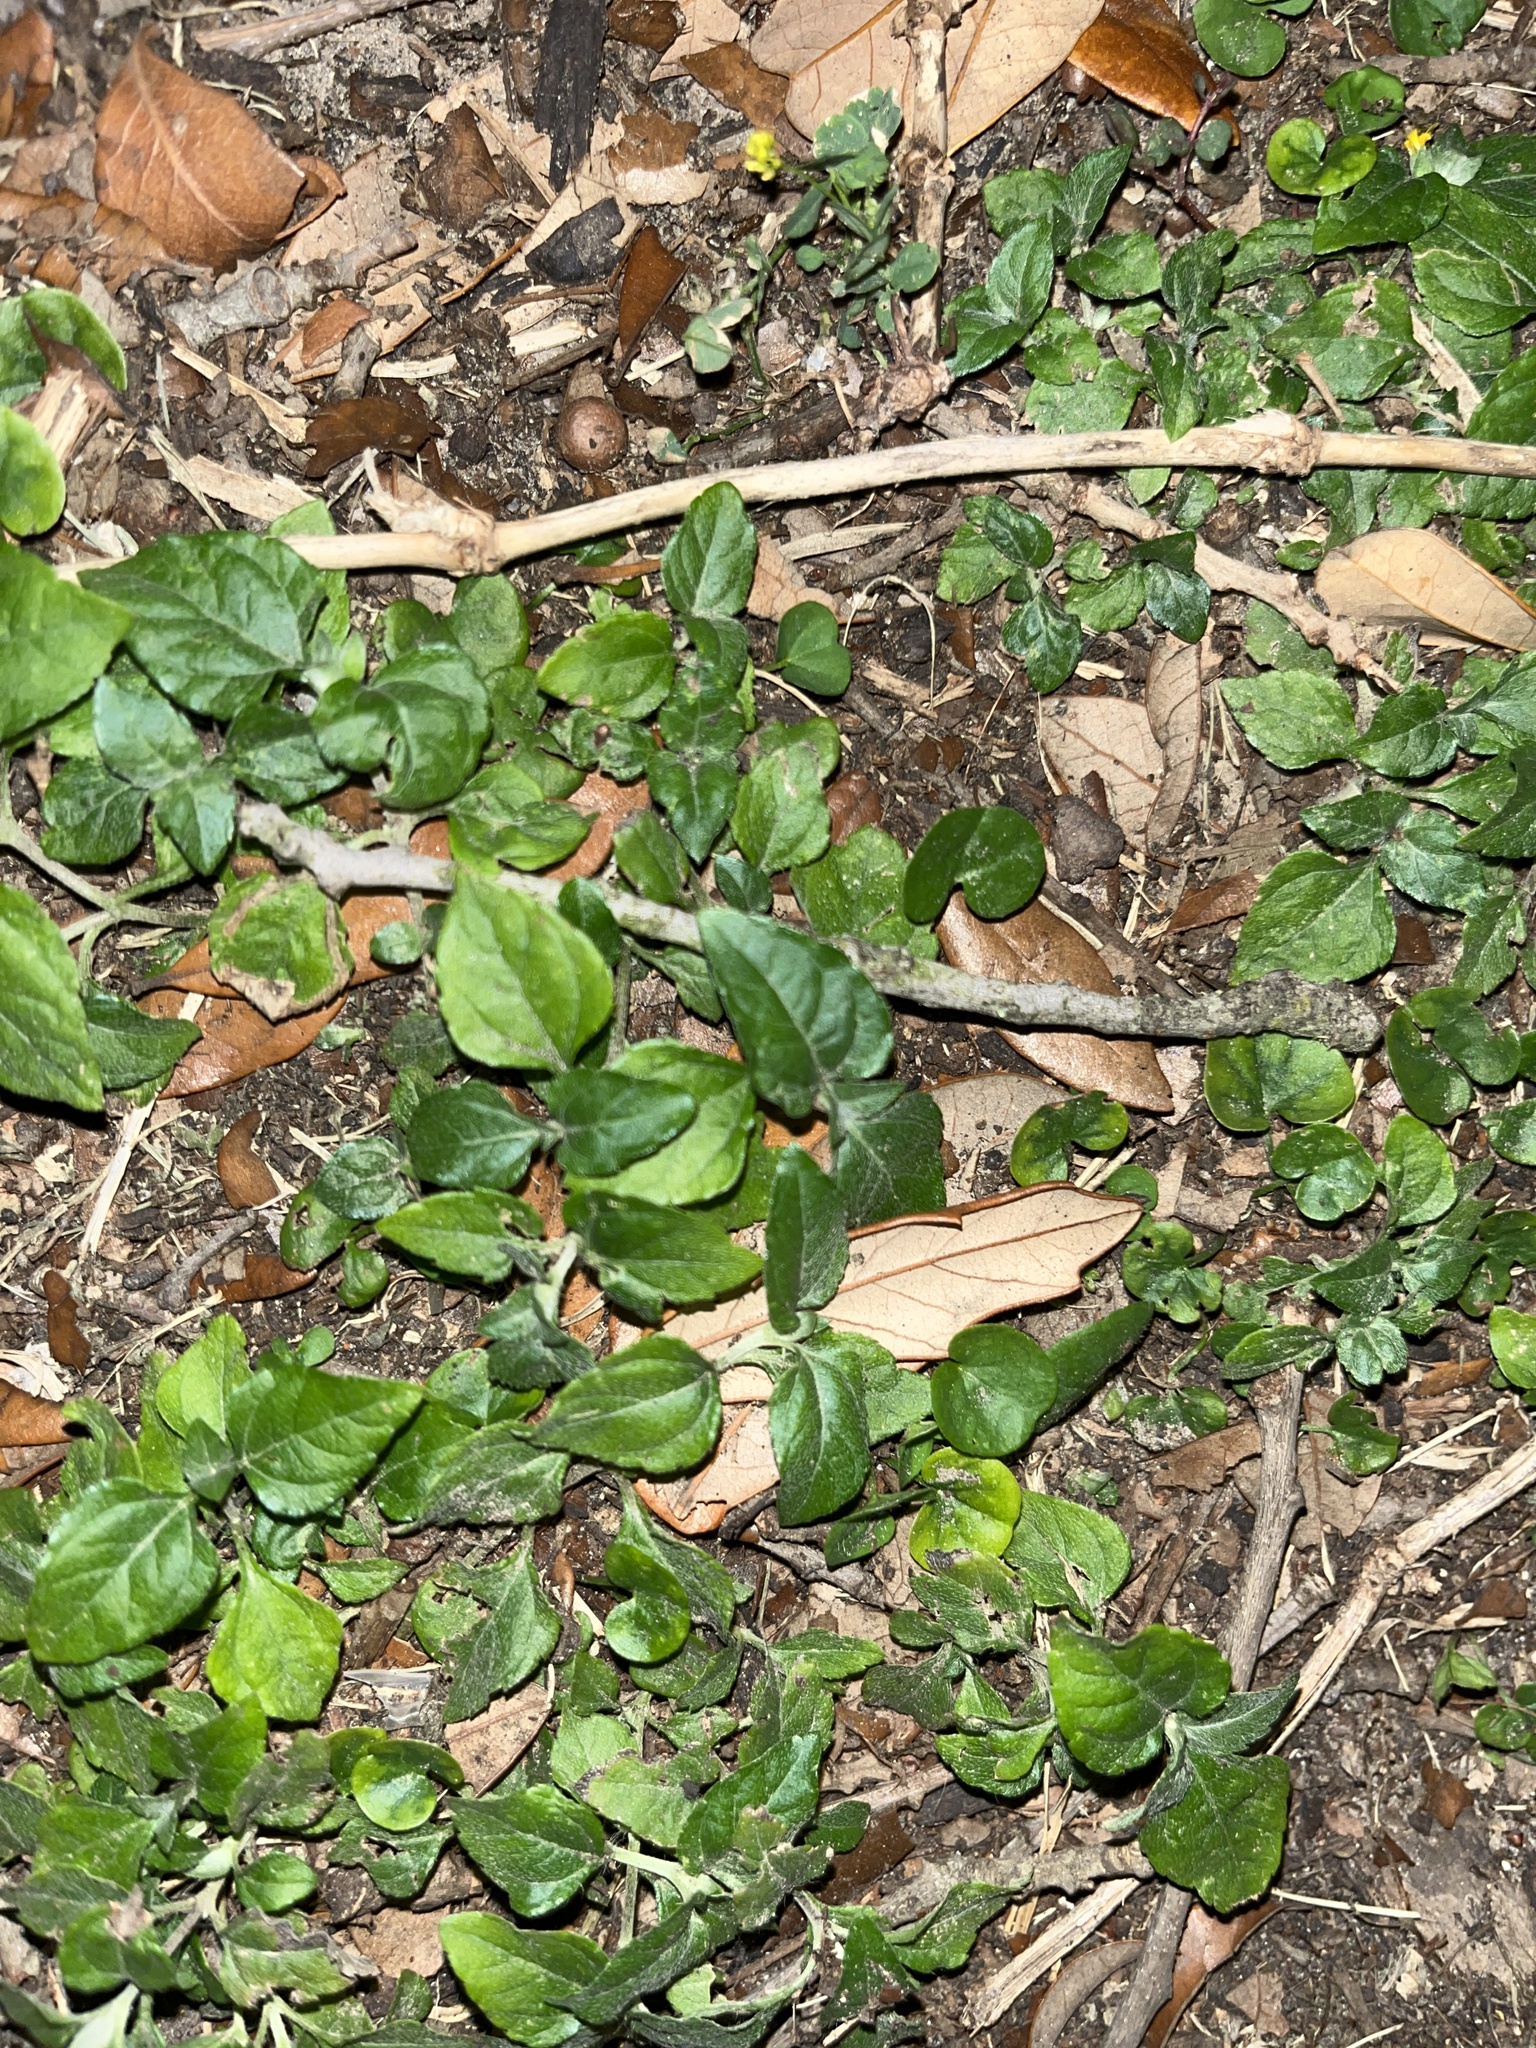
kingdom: Plantae
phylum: Tracheophyta
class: Magnoliopsida
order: Asterales
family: Asteraceae
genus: Calyptocarpus
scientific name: Calyptocarpus vialis
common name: Straggler daisy
